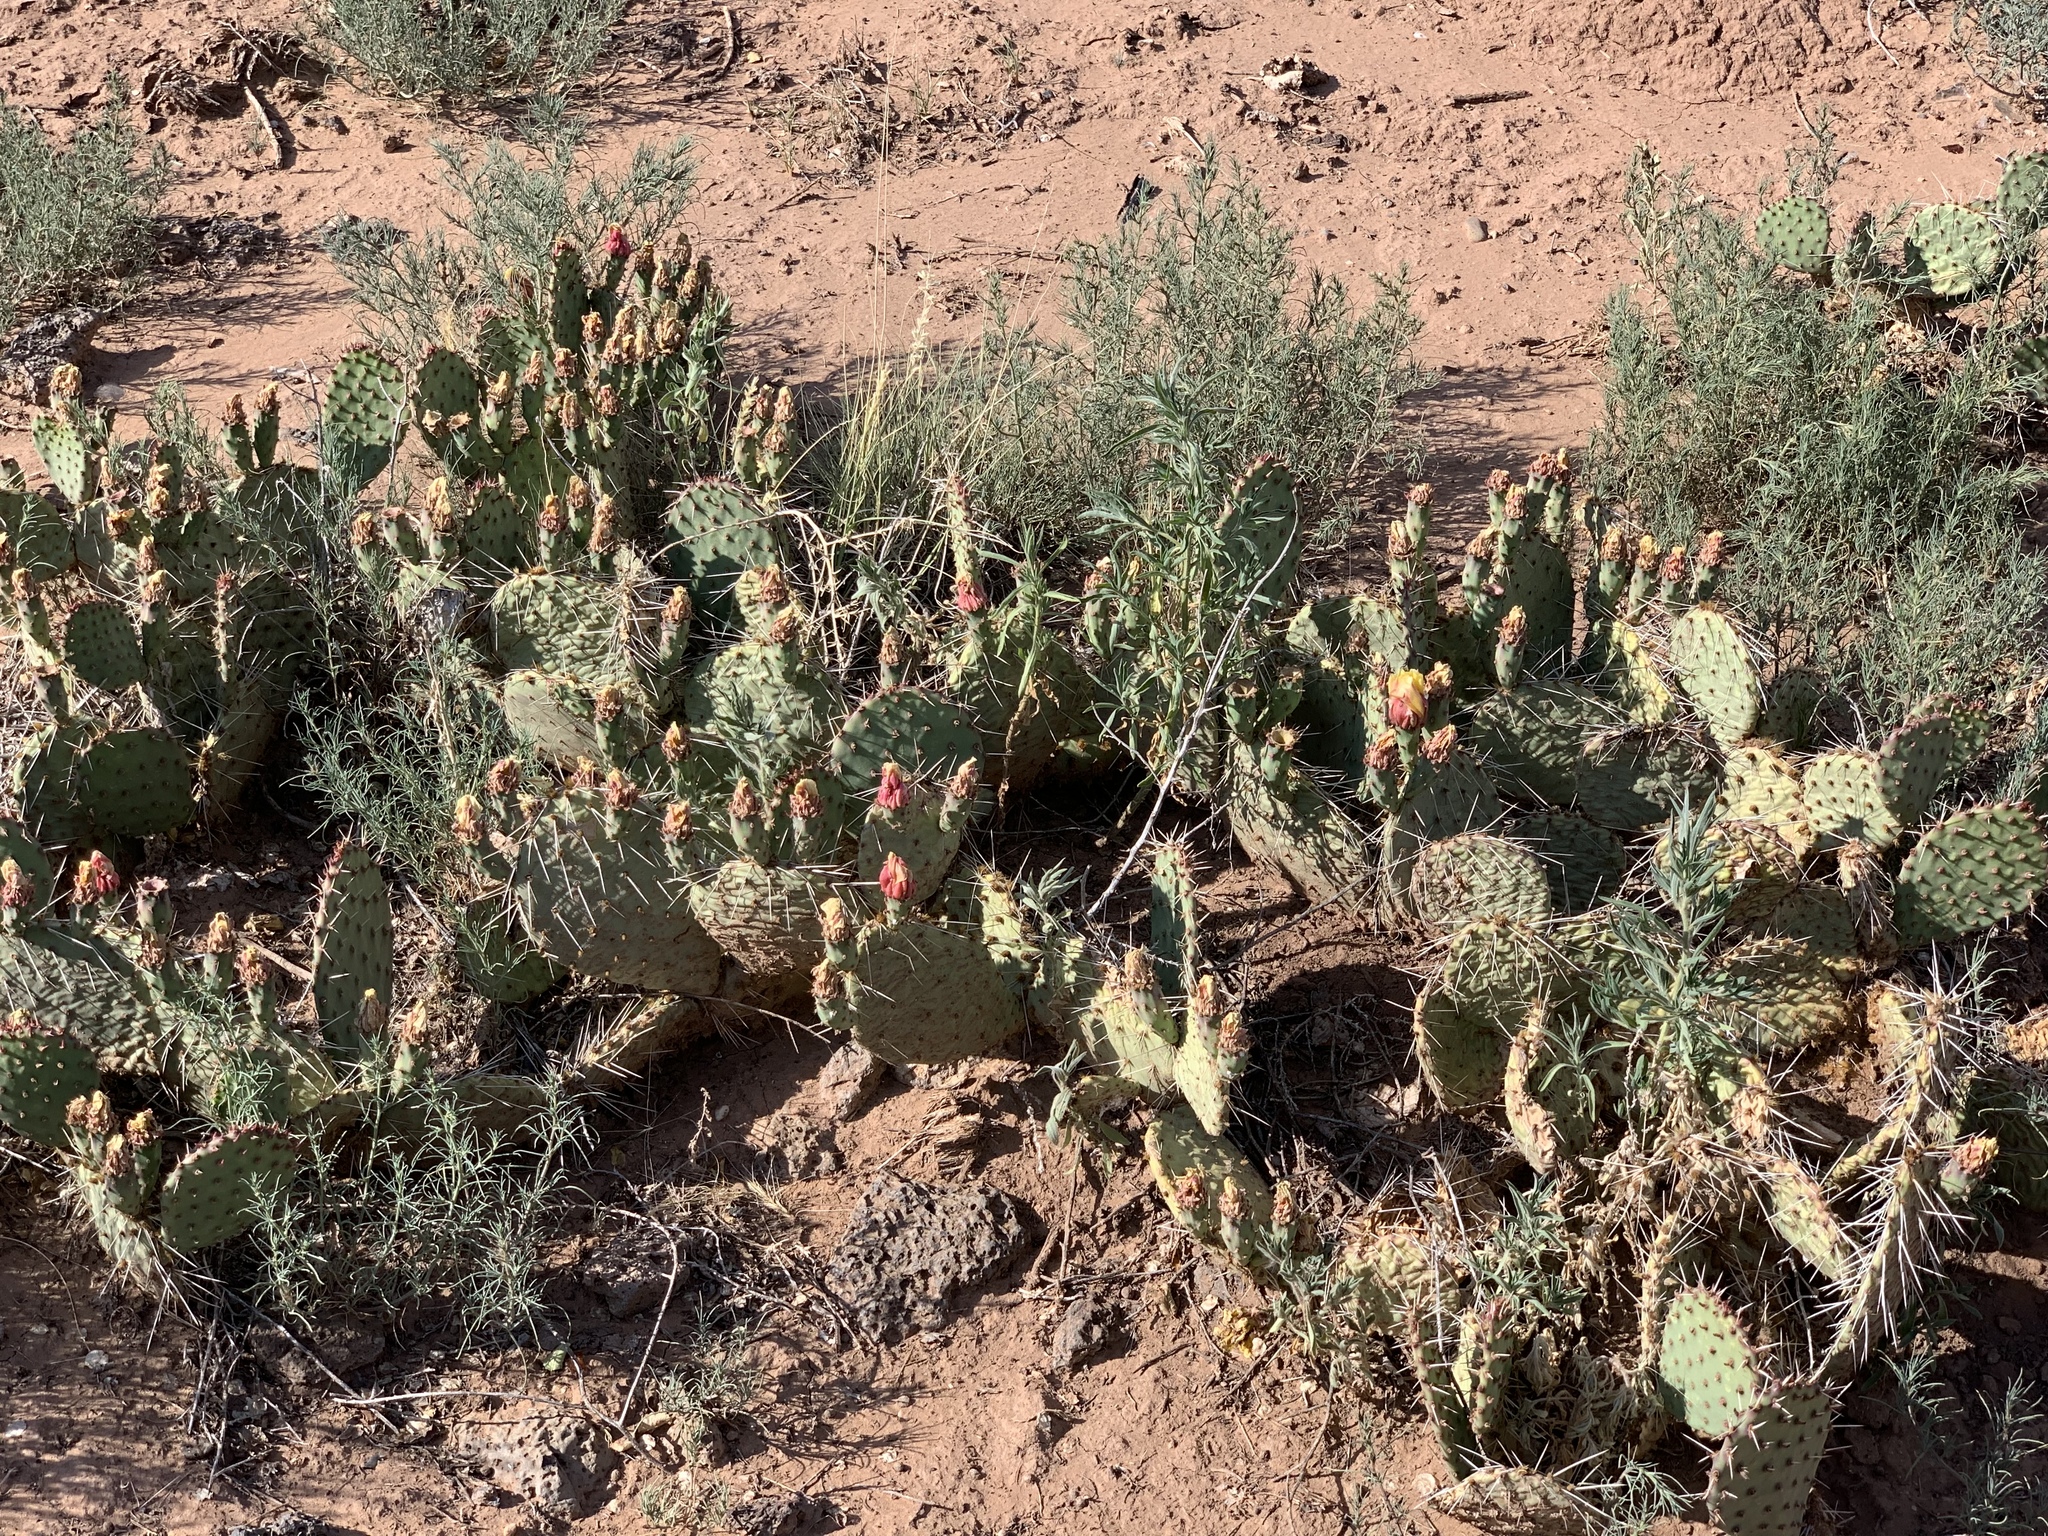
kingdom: Plantae
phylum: Tracheophyta
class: Magnoliopsida
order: Caryophyllales
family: Cactaceae
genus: Opuntia
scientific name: Opuntia cymochila
